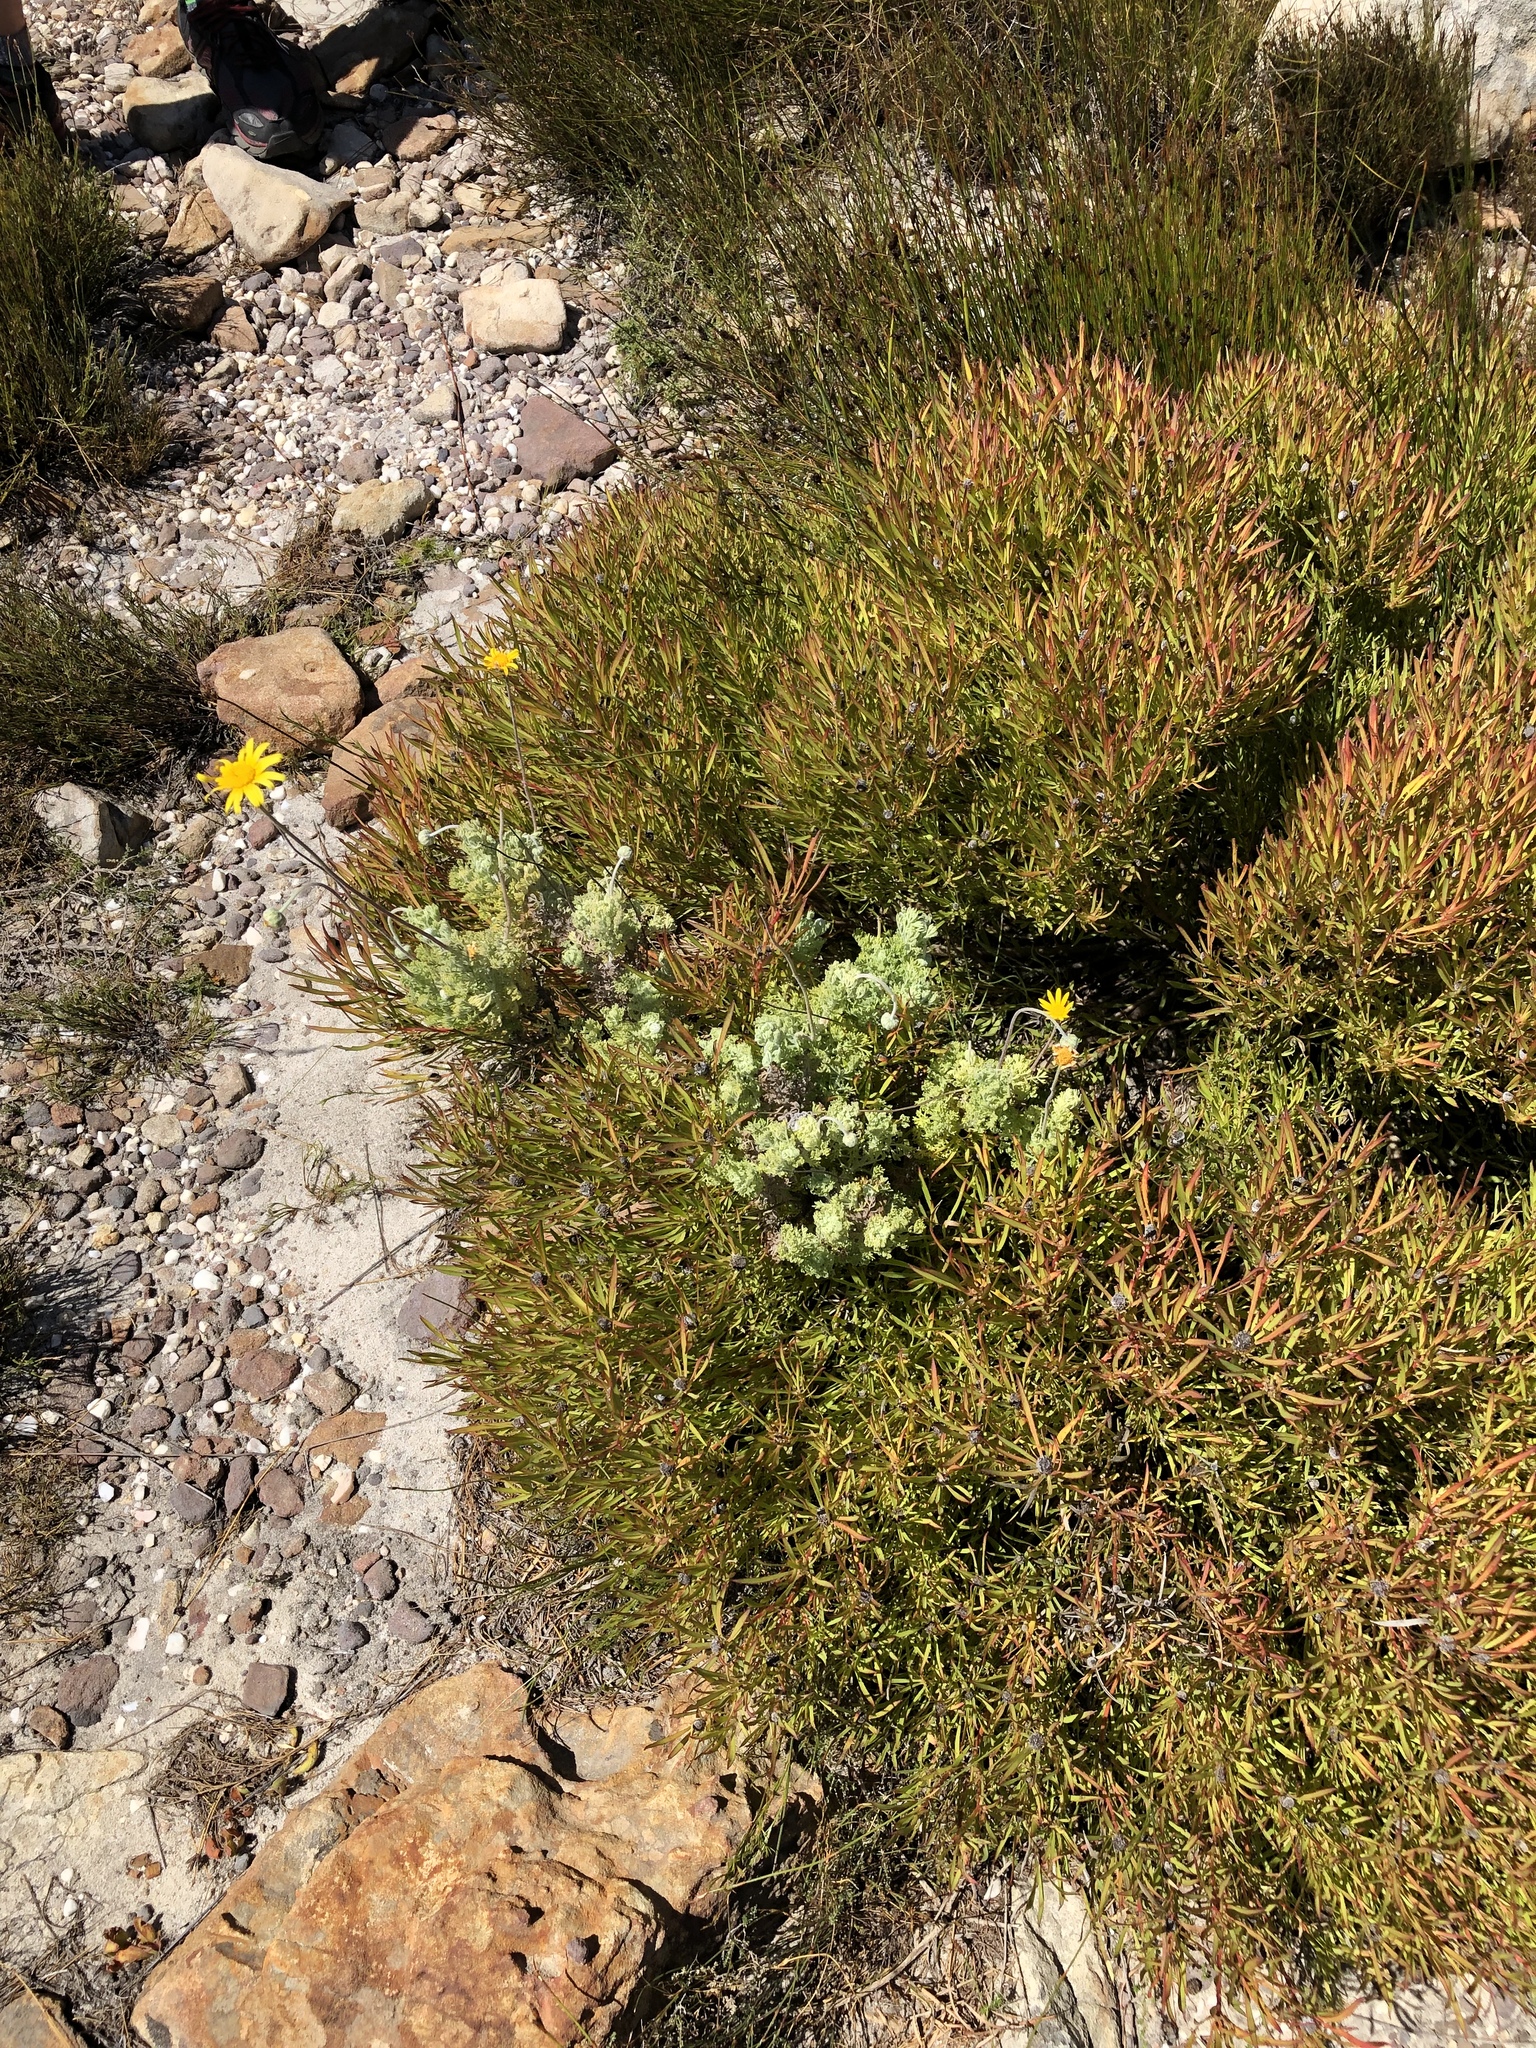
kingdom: Plantae
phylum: Tracheophyta
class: Magnoliopsida
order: Asterales
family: Asteraceae
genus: Ursinia
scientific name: Ursinia abrotanifolia
